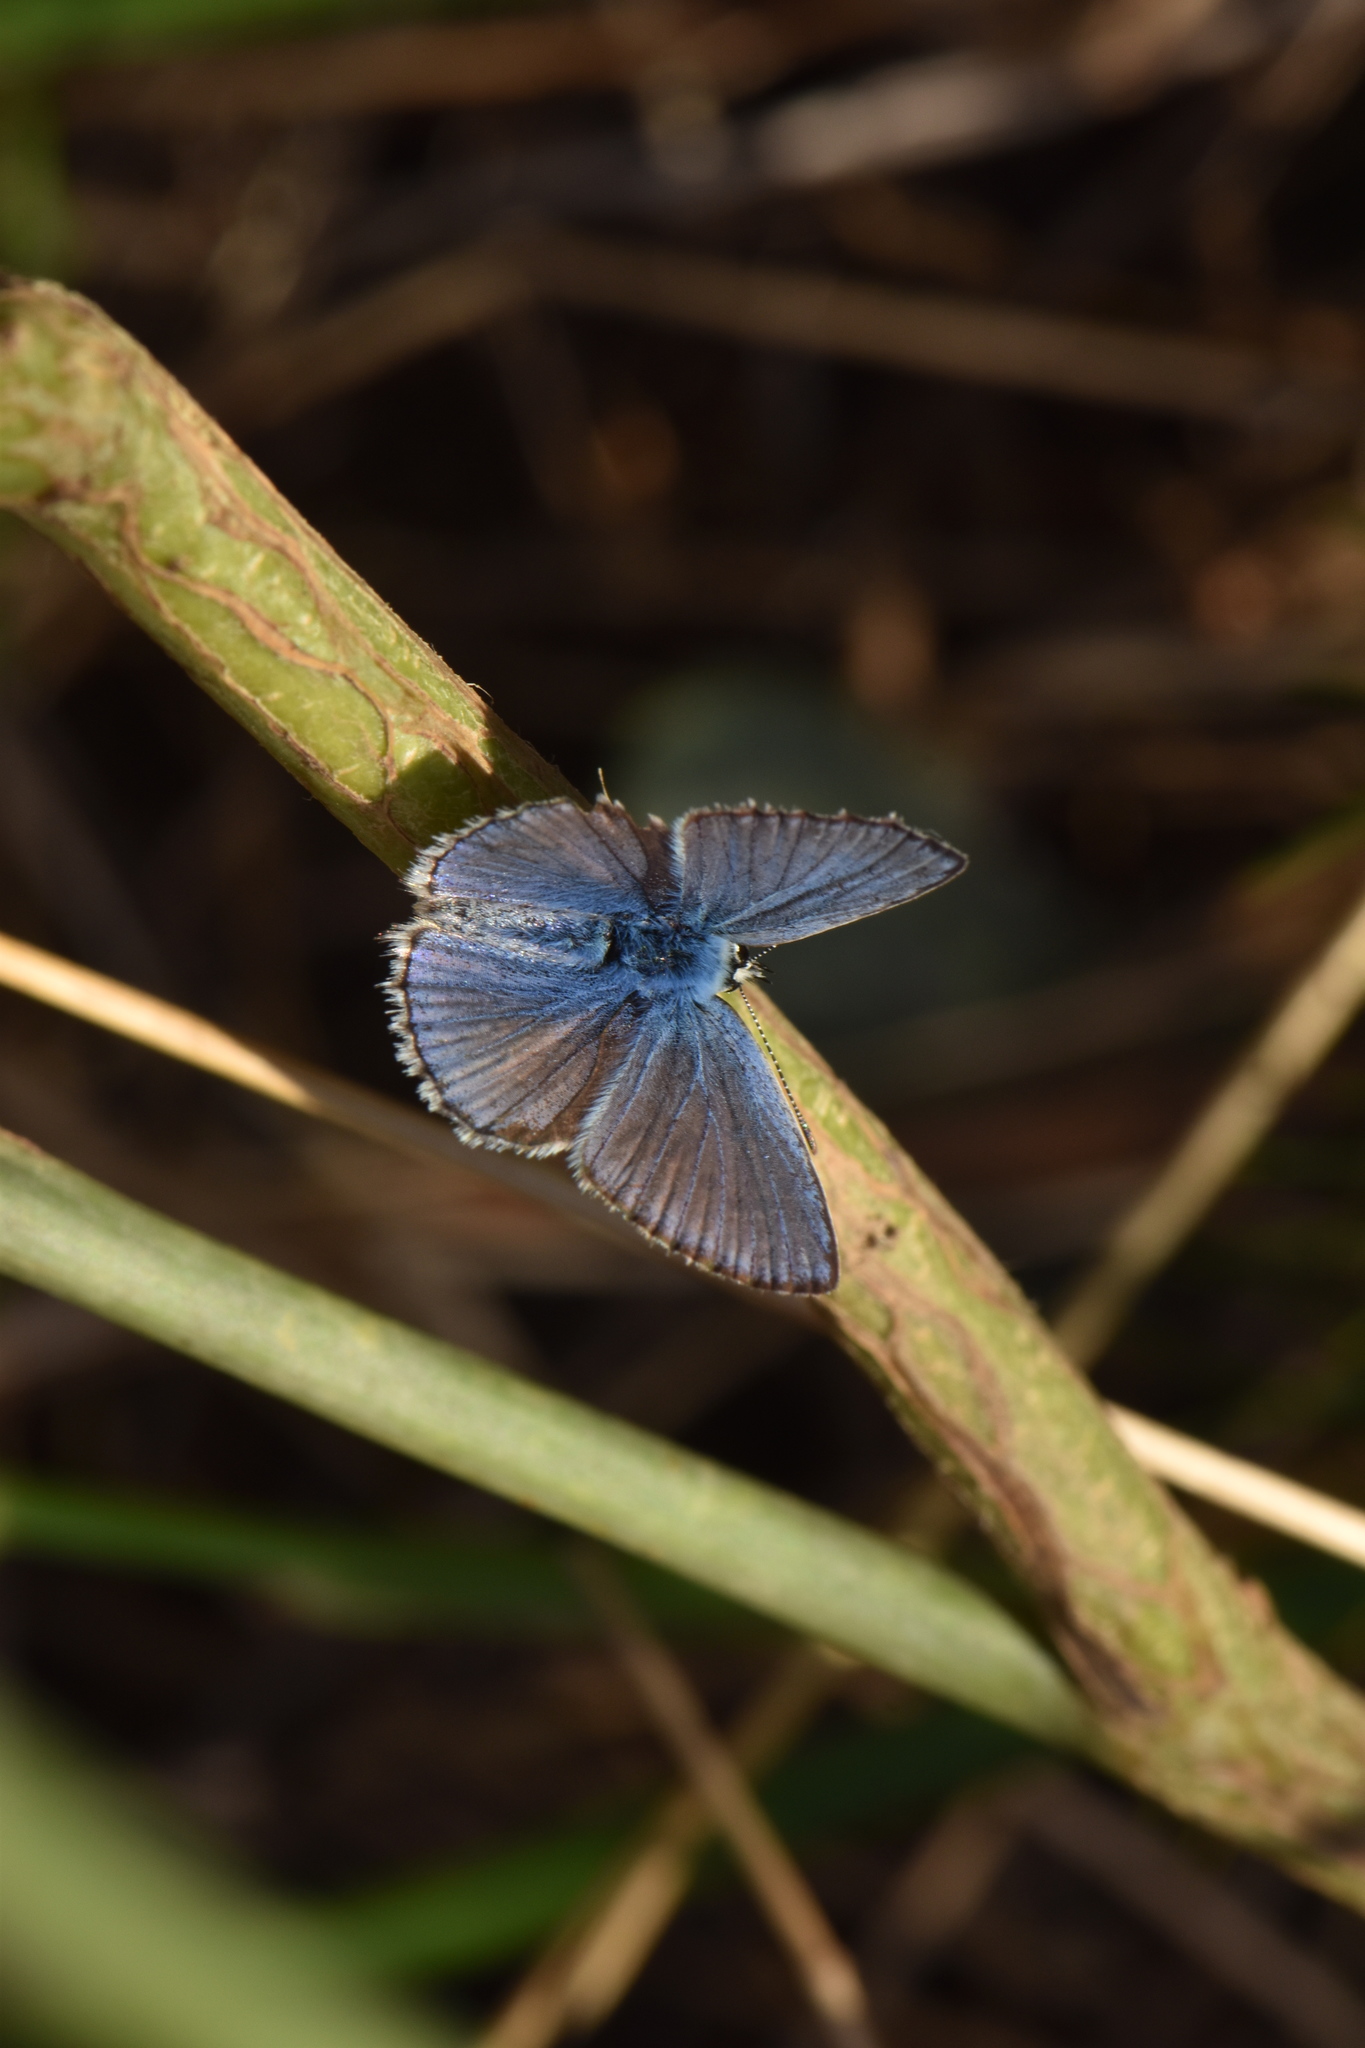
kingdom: Animalia
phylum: Arthropoda
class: Insecta
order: Lepidoptera
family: Lycaenidae
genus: Polyommatus
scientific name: Polyommatus celina
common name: Austaut's blue
